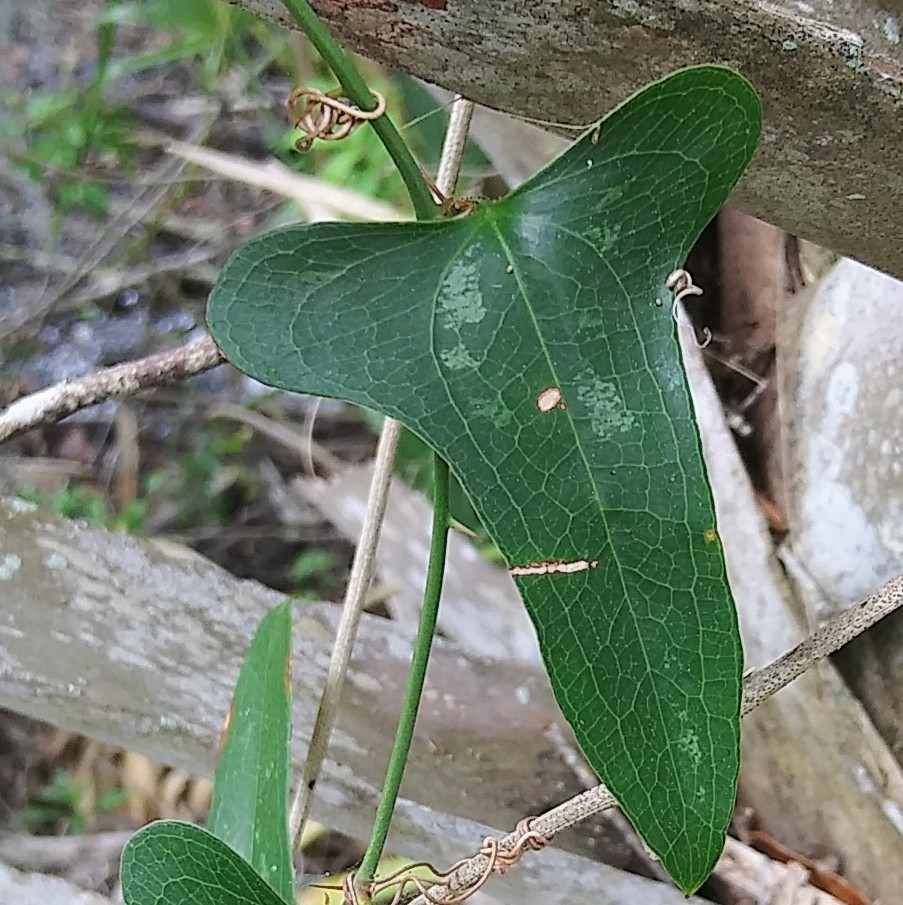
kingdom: Plantae
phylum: Tracheophyta
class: Liliopsida
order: Liliales
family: Smilacaceae
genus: Smilax
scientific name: Smilax bona-nox
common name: Catbrier
